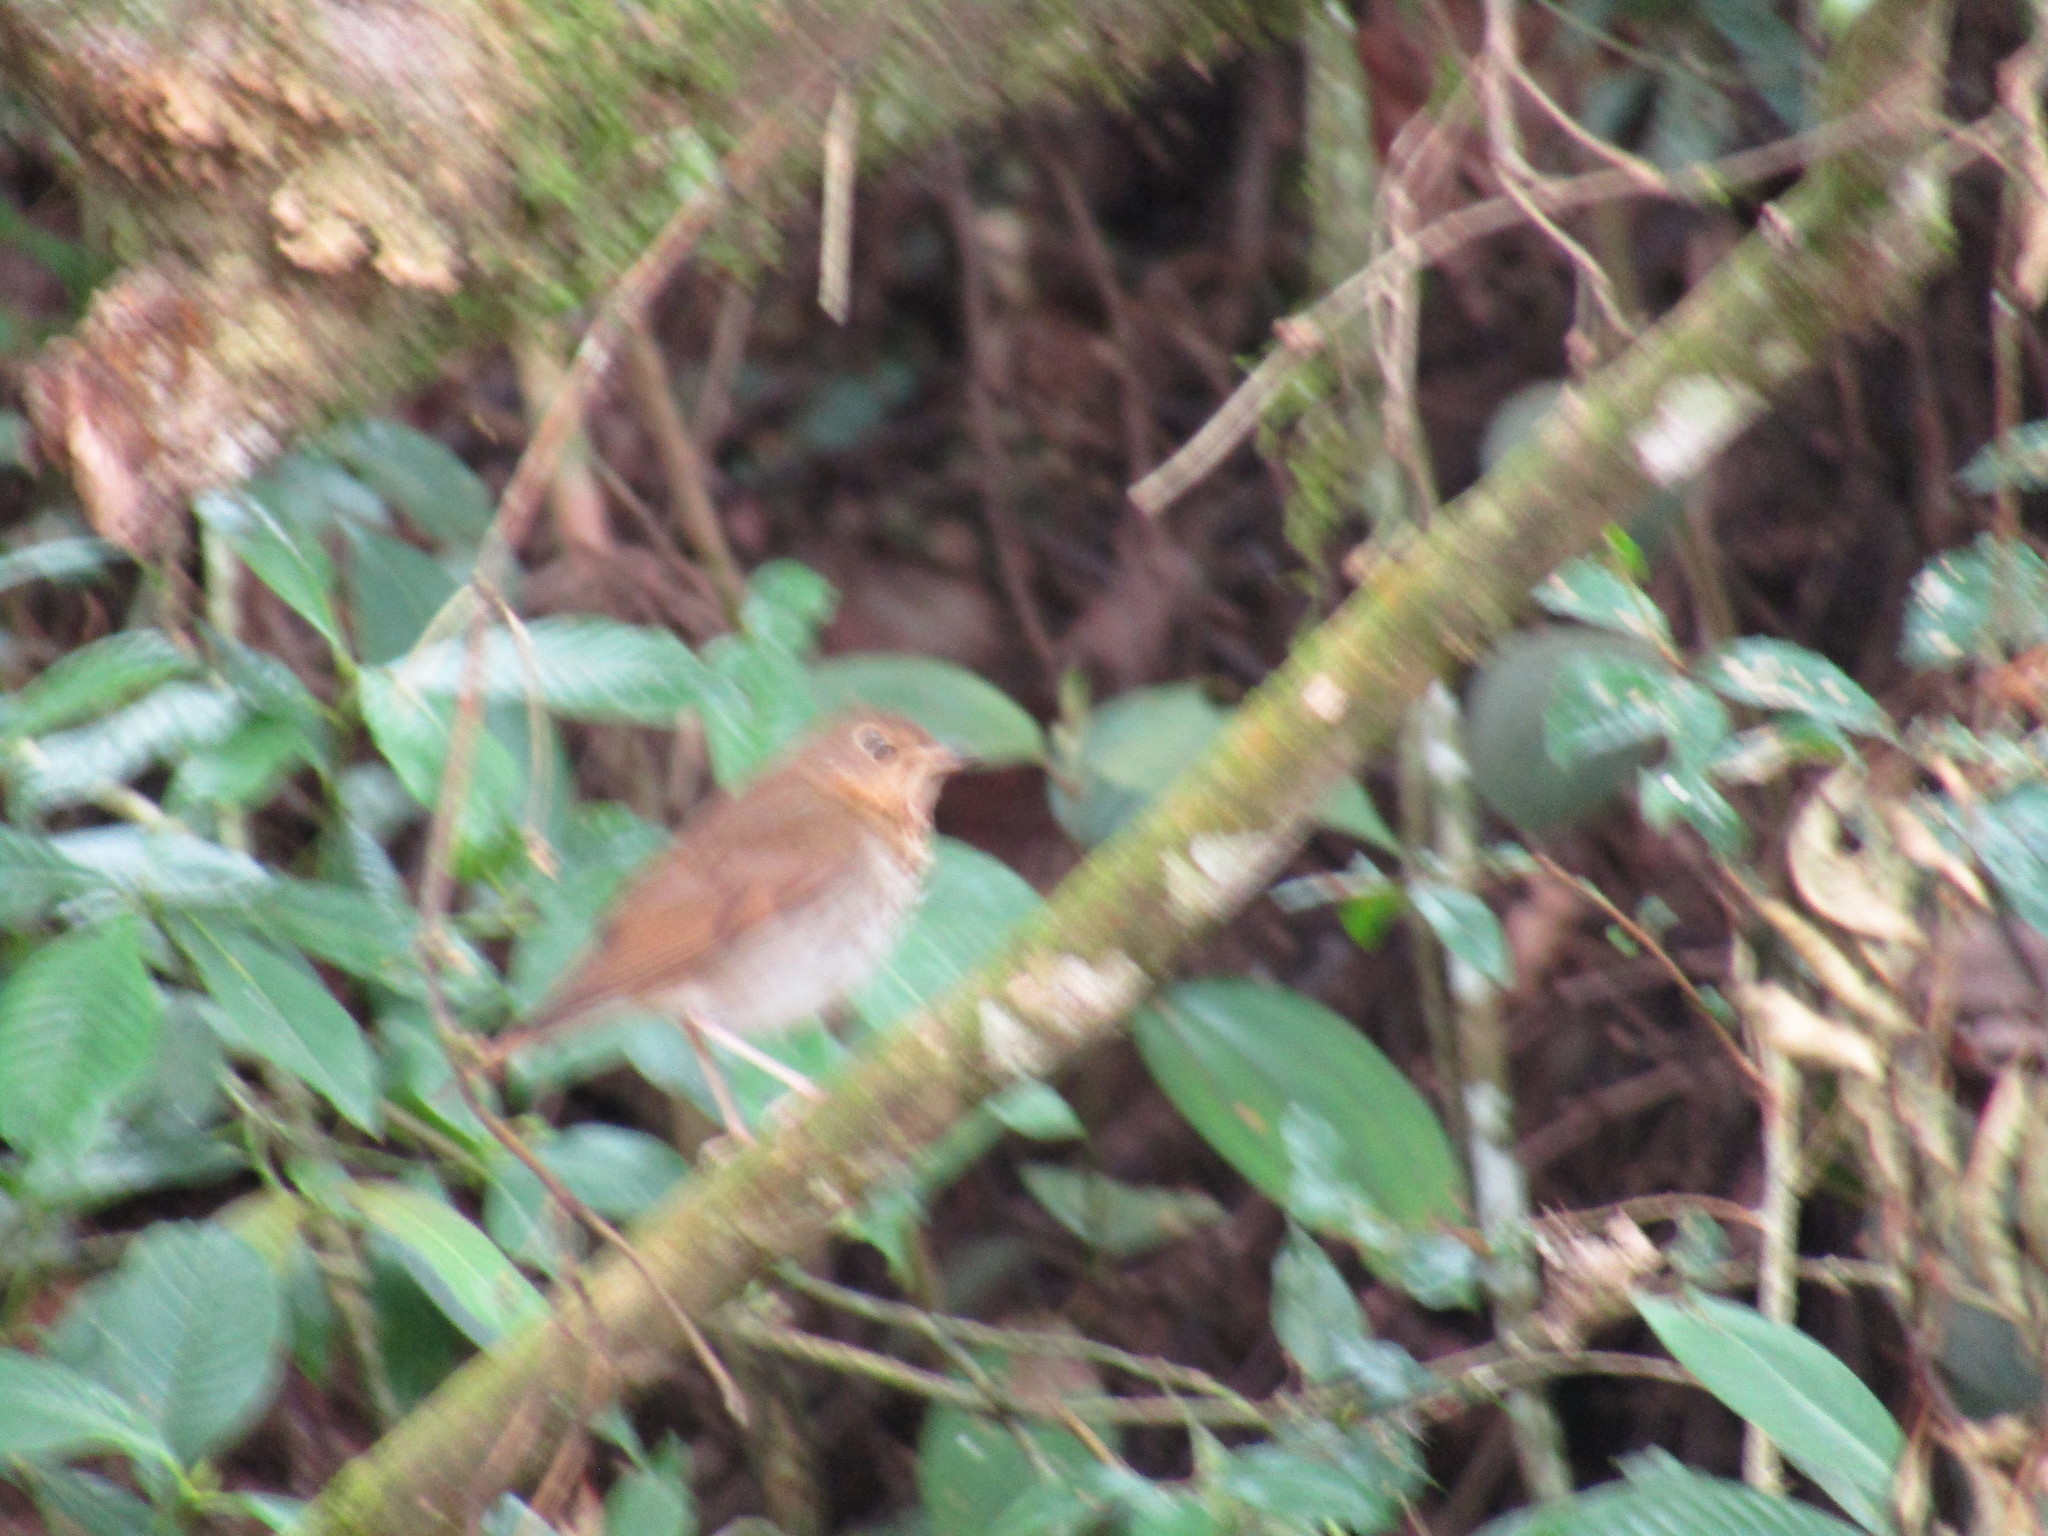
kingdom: Animalia
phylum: Chordata
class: Aves
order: Passeriformes
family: Turdidae
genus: Catharus
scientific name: Catharus ustulatus
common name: Swainson's thrush
